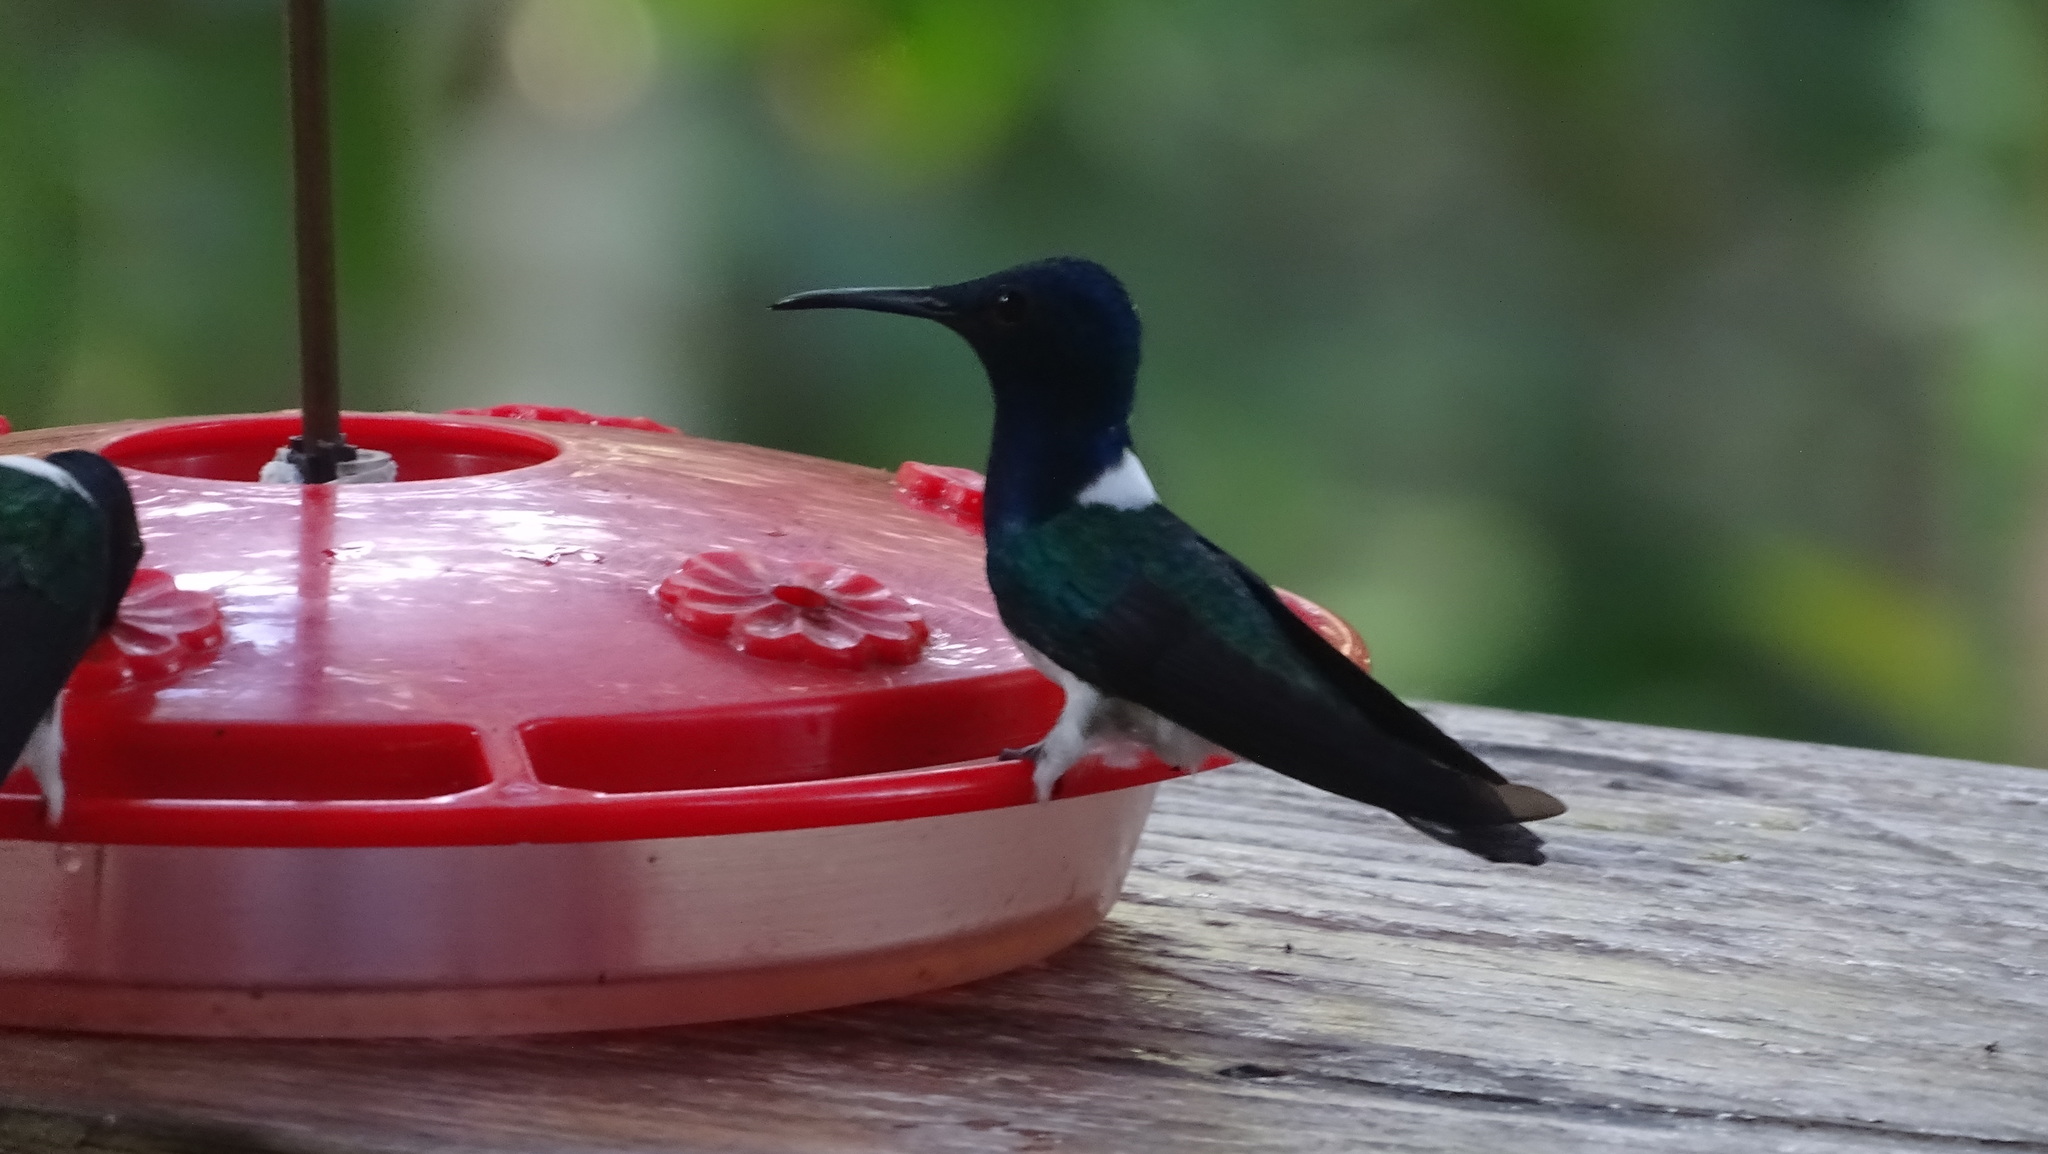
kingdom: Animalia
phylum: Chordata
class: Aves
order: Apodiformes
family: Trochilidae
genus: Florisuga
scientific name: Florisuga mellivora
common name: White-necked jacobin
